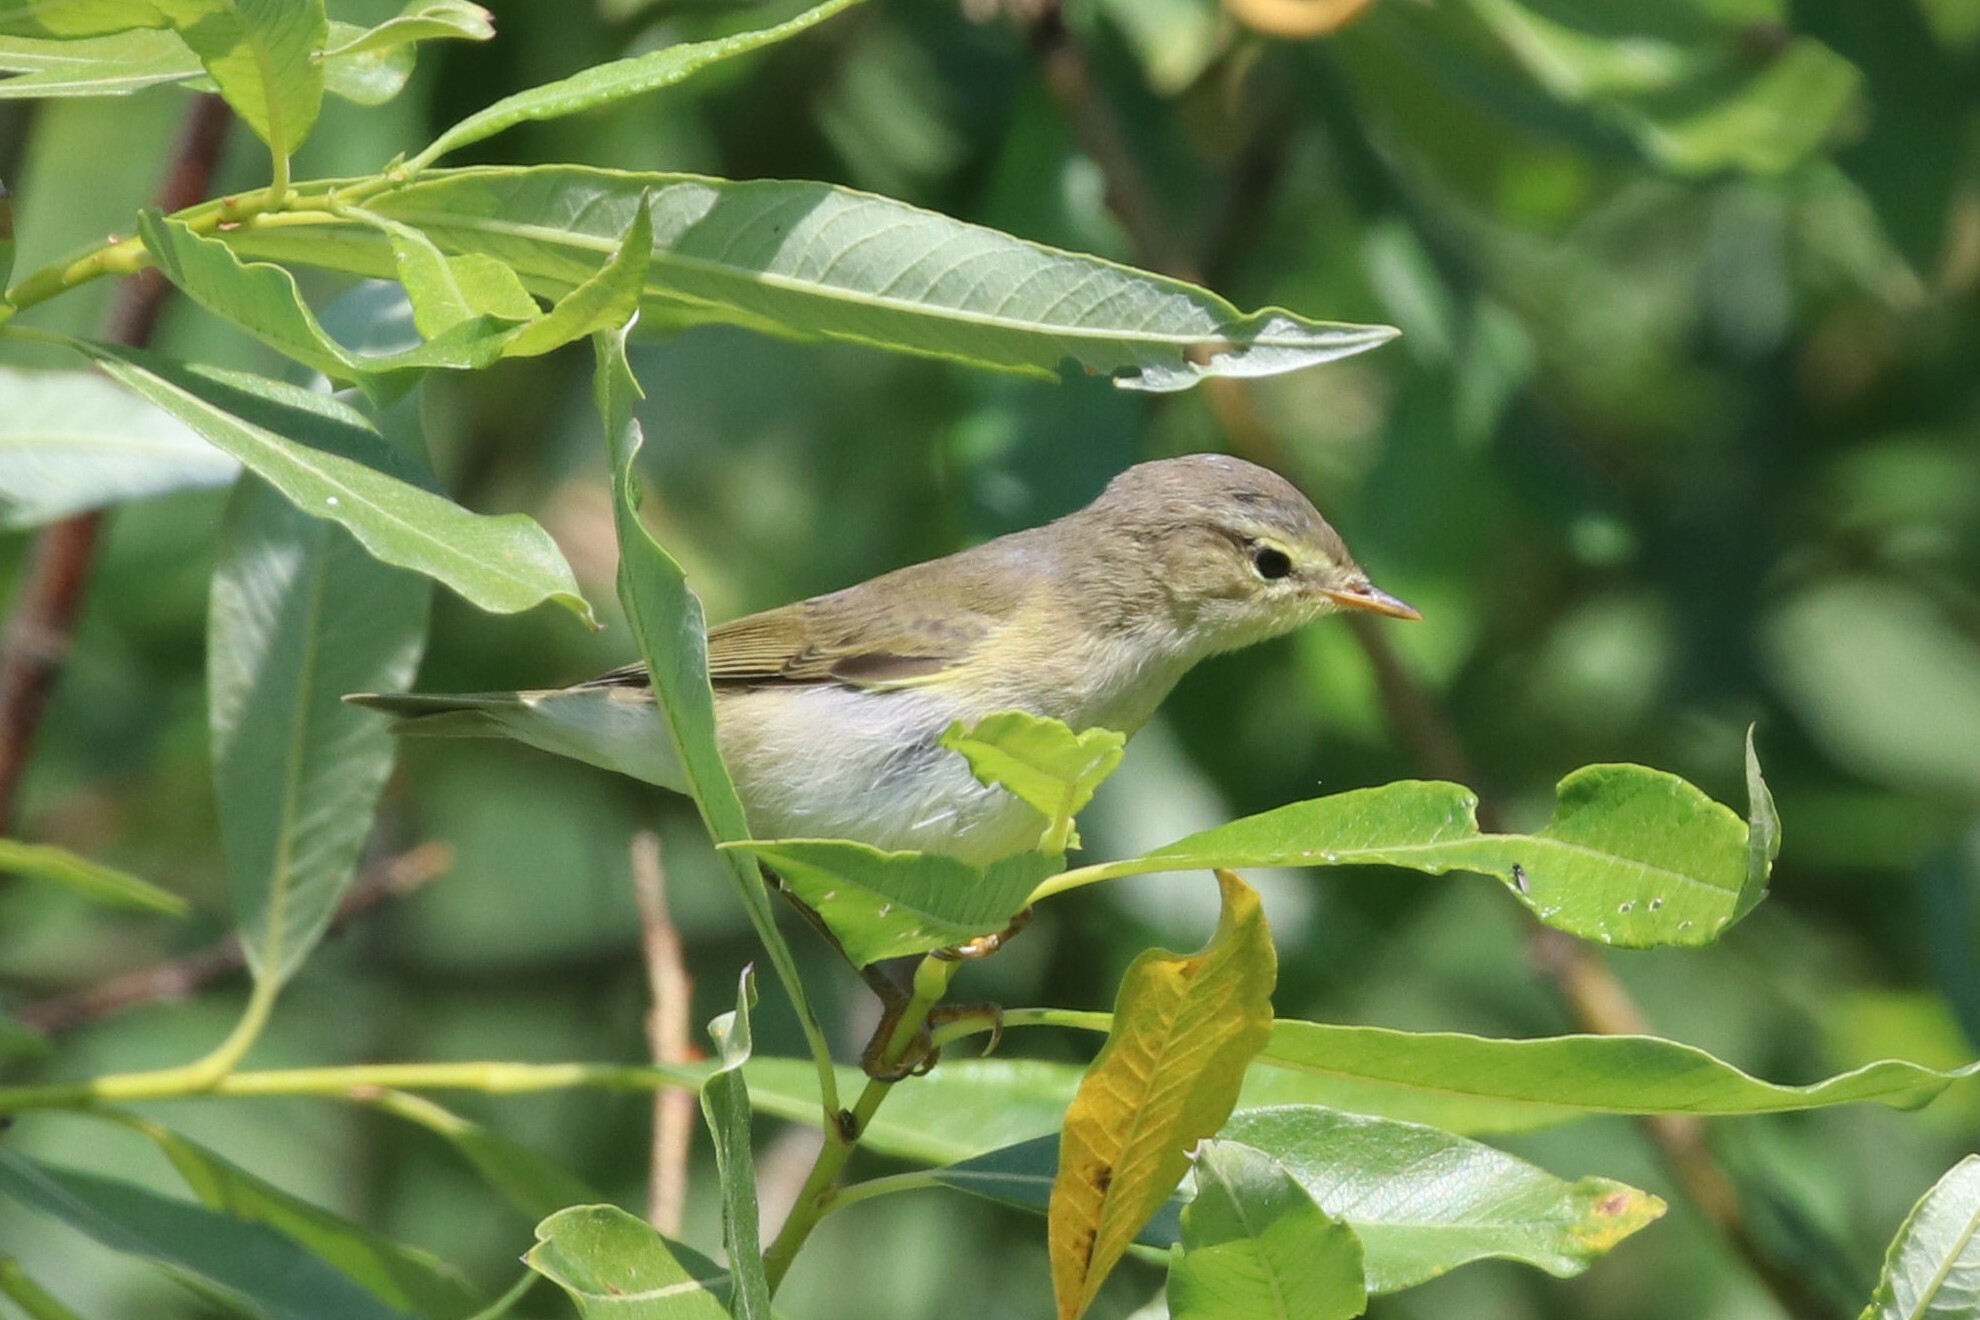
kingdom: Animalia
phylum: Chordata
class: Aves
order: Passeriformes
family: Phylloscopidae
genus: Phylloscopus
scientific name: Phylloscopus trochilus
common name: Willow warbler
